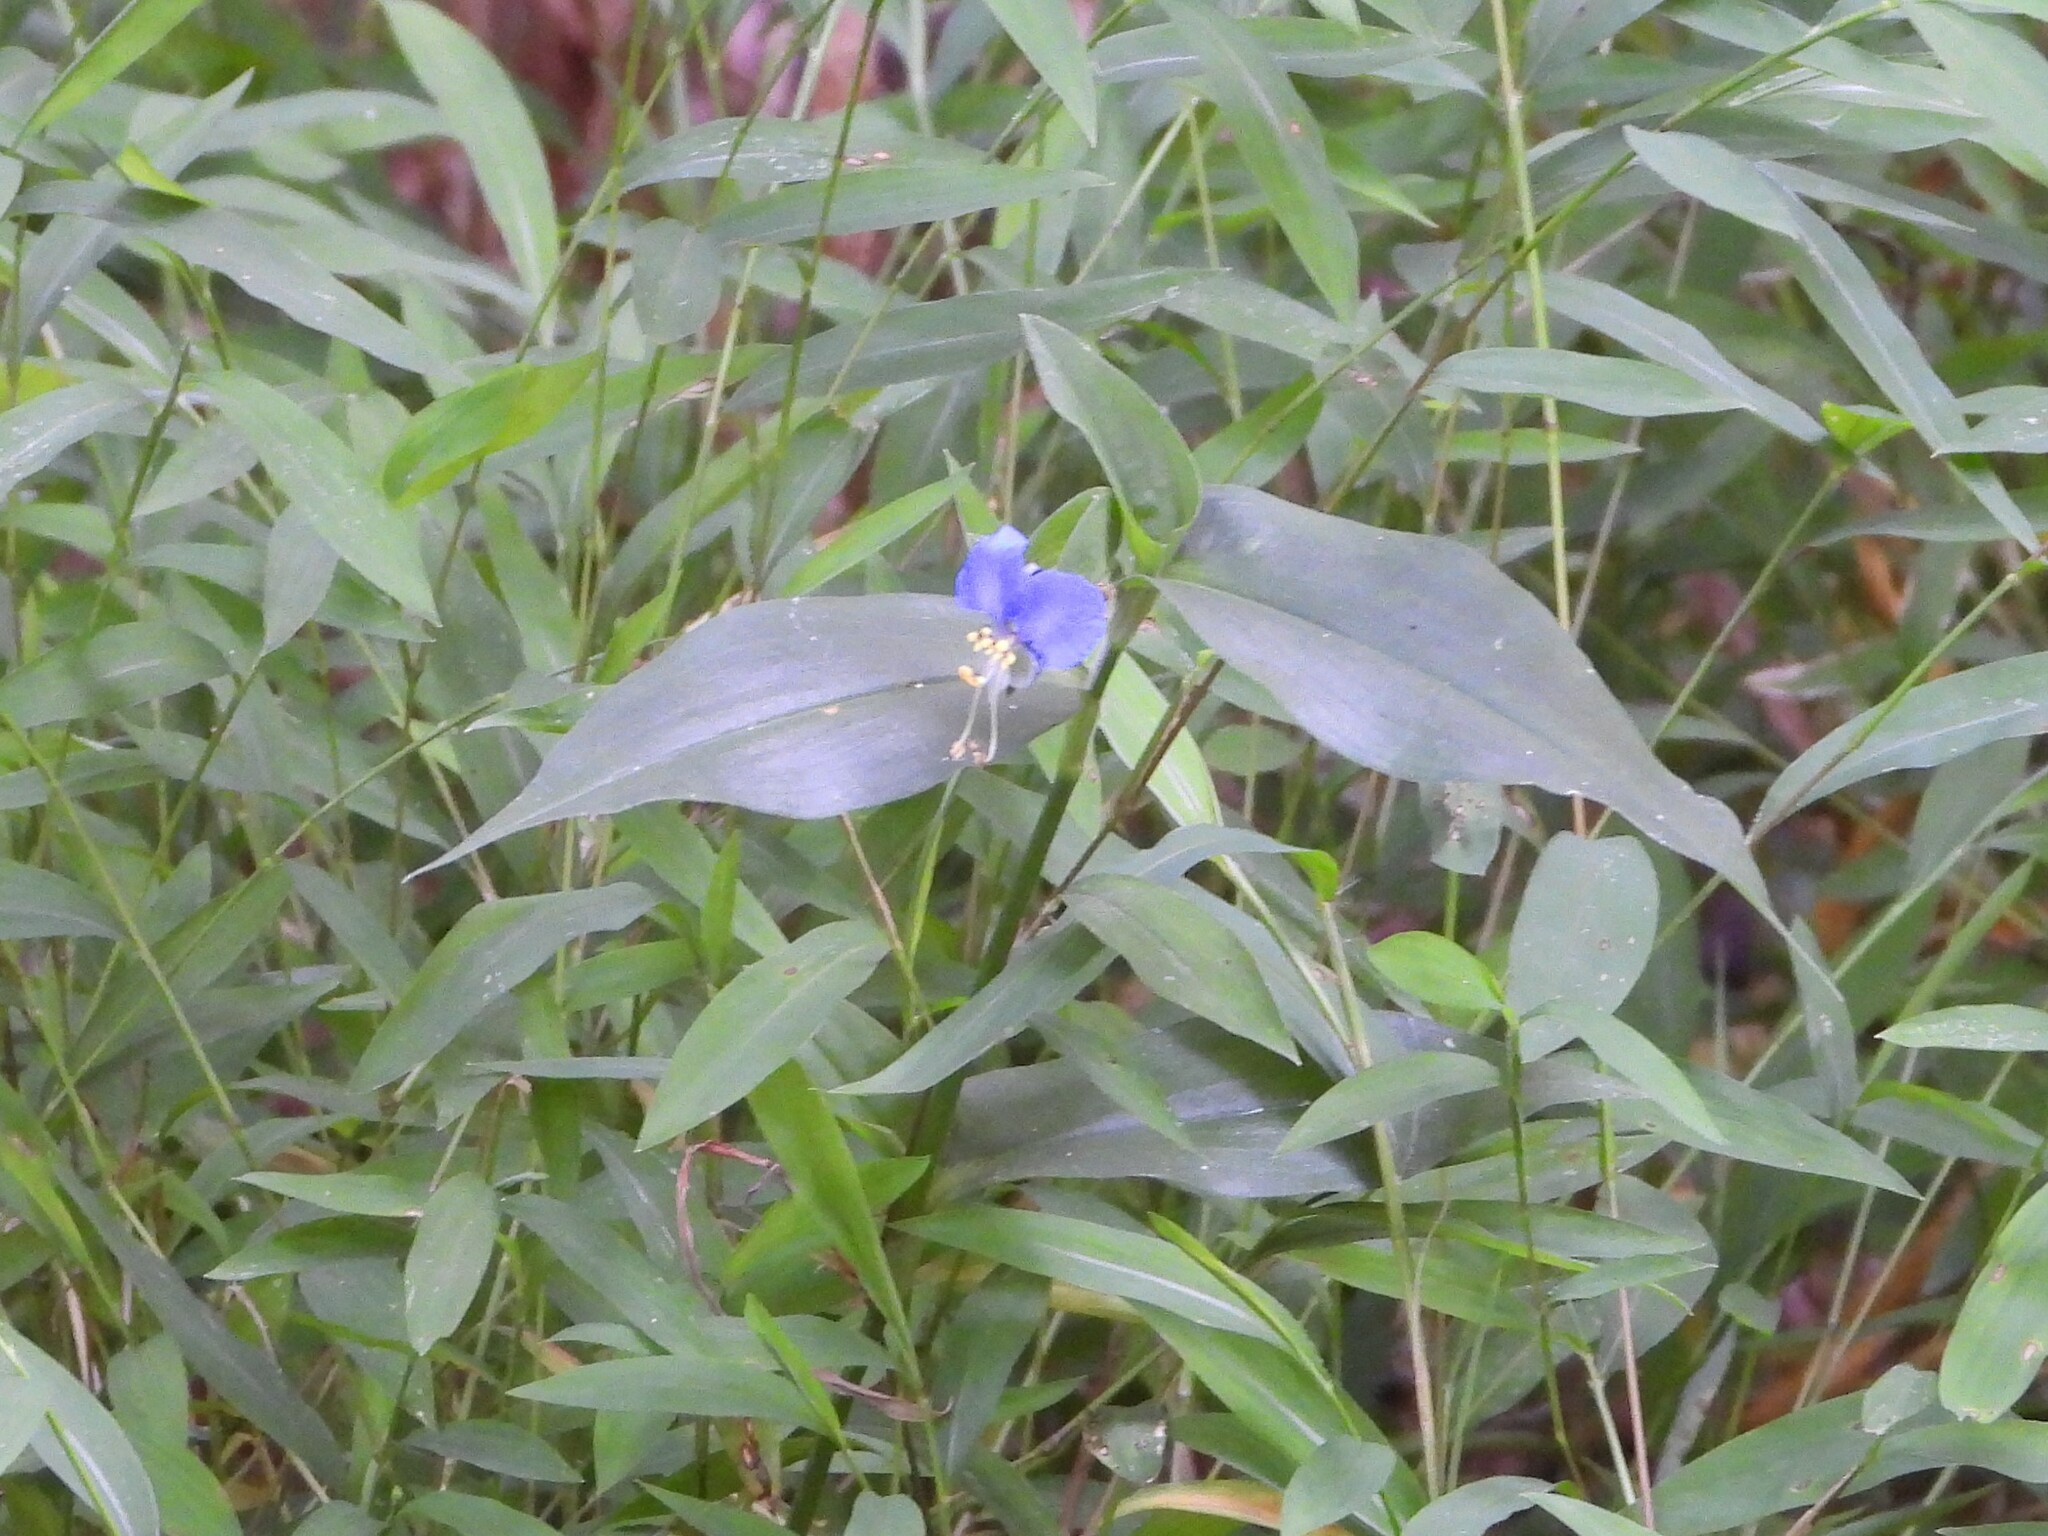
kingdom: Plantae
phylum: Tracheophyta
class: Liliopsida
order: Commelinales
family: Commelinaceae
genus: Commelina
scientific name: Commelina communis
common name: Asiatic dayflower
